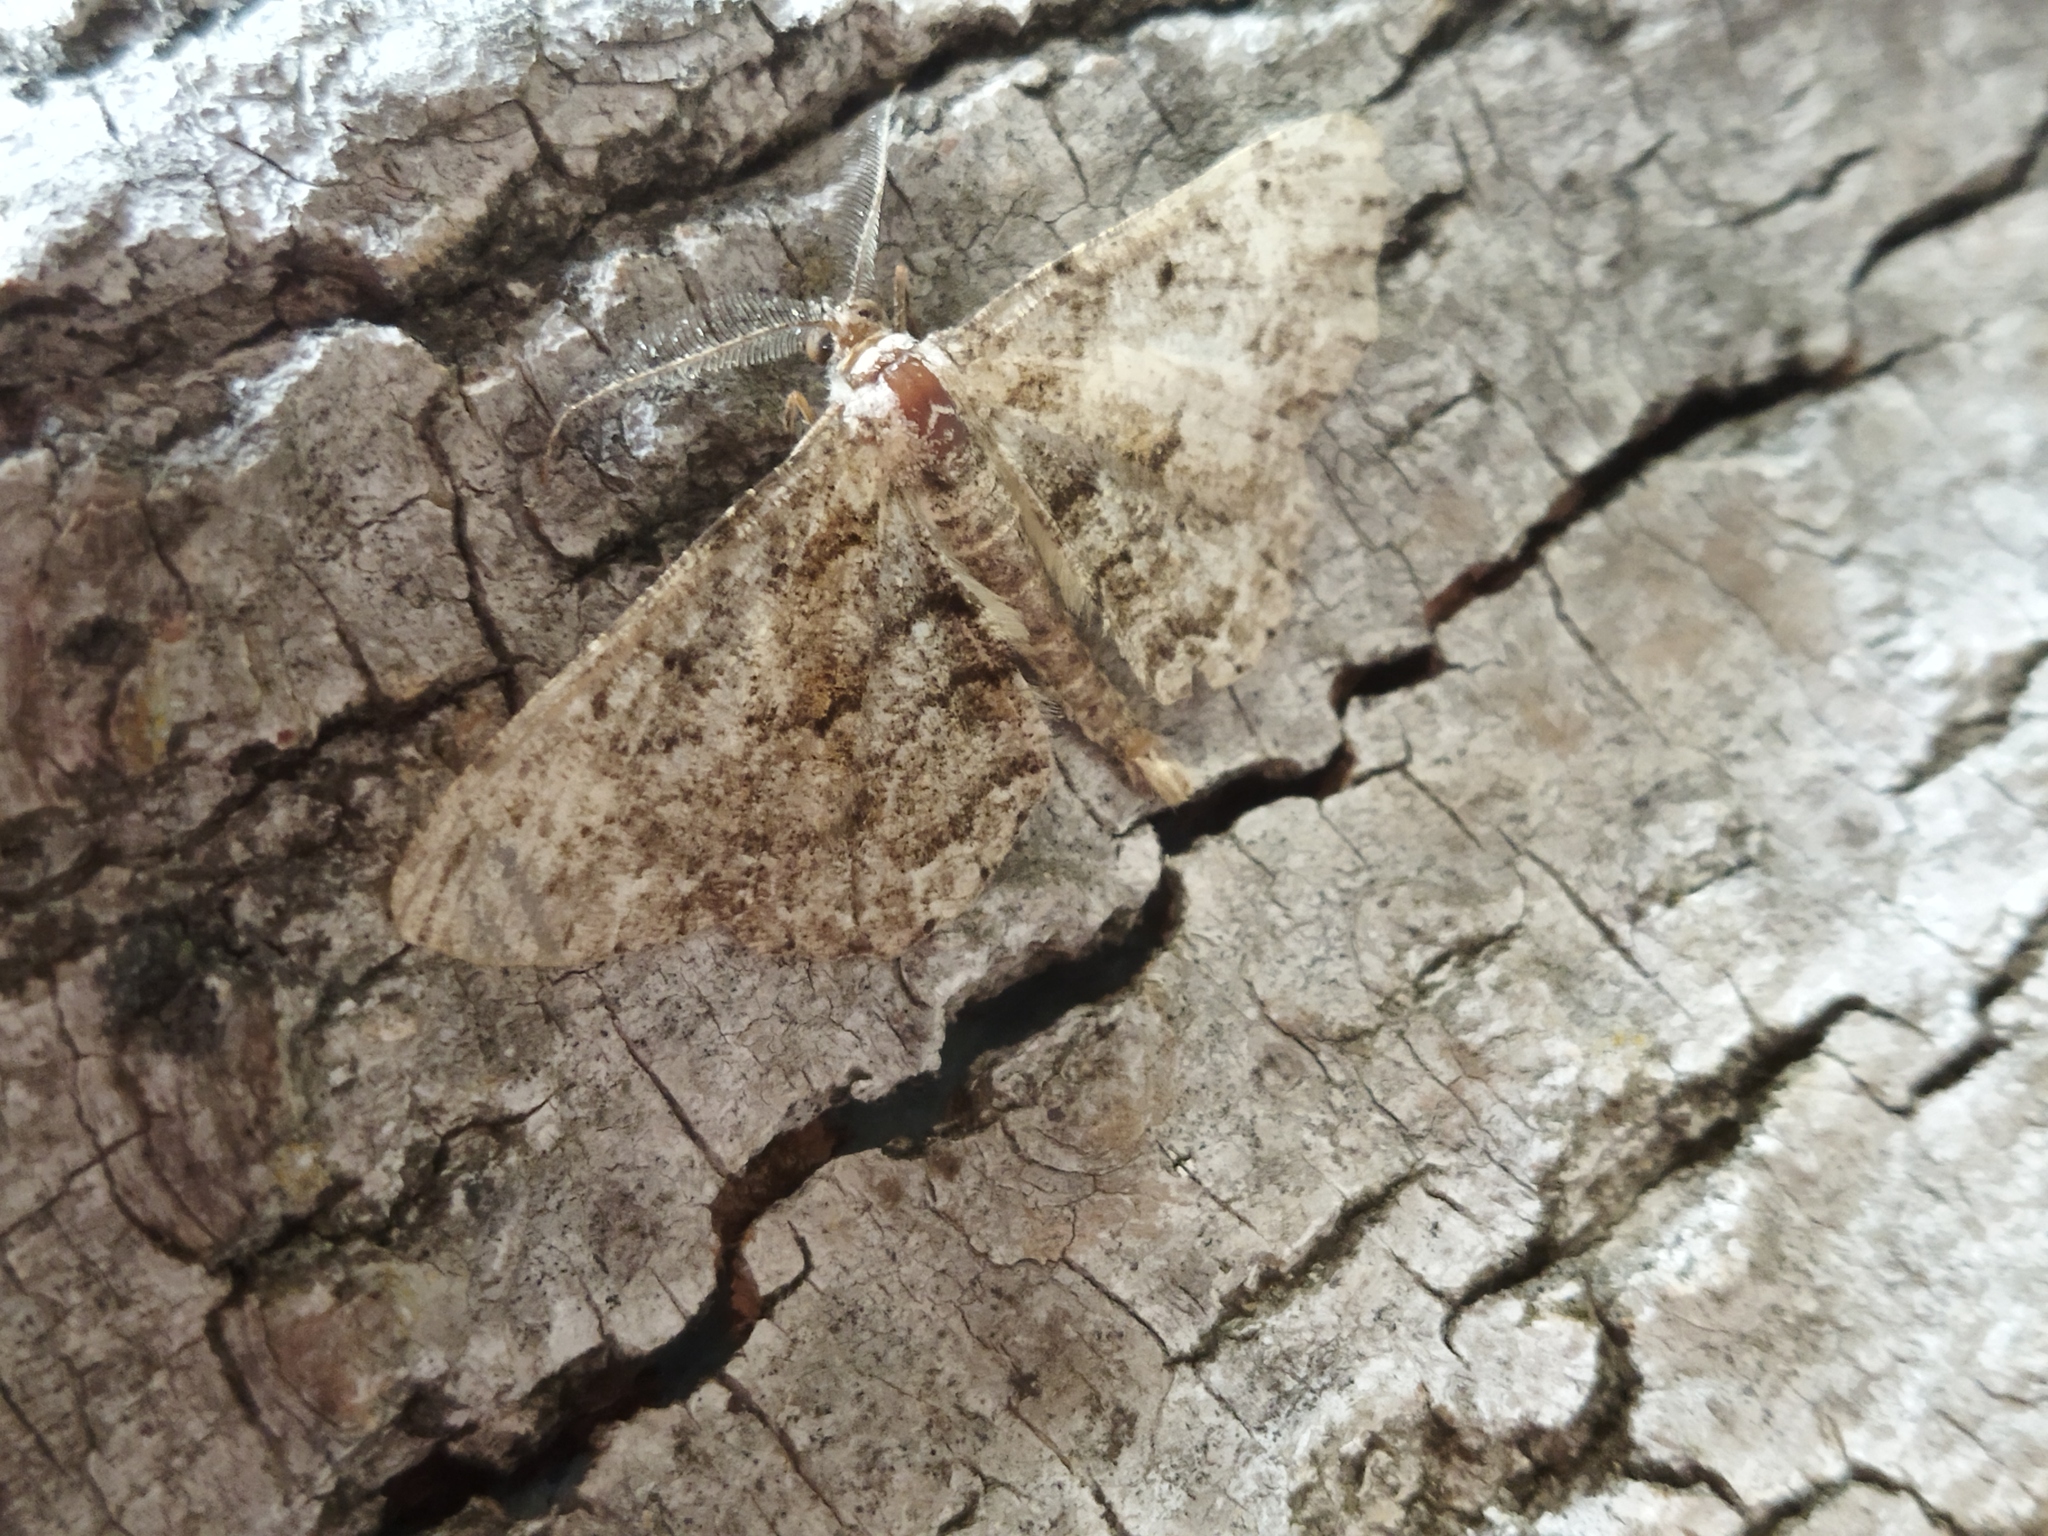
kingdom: Animalia
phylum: Arthropoda
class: Insecta
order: Lepidoptera
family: Geometridae
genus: Hypomecis
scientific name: Hypomecis punctinalis
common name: Pale oak beauty
